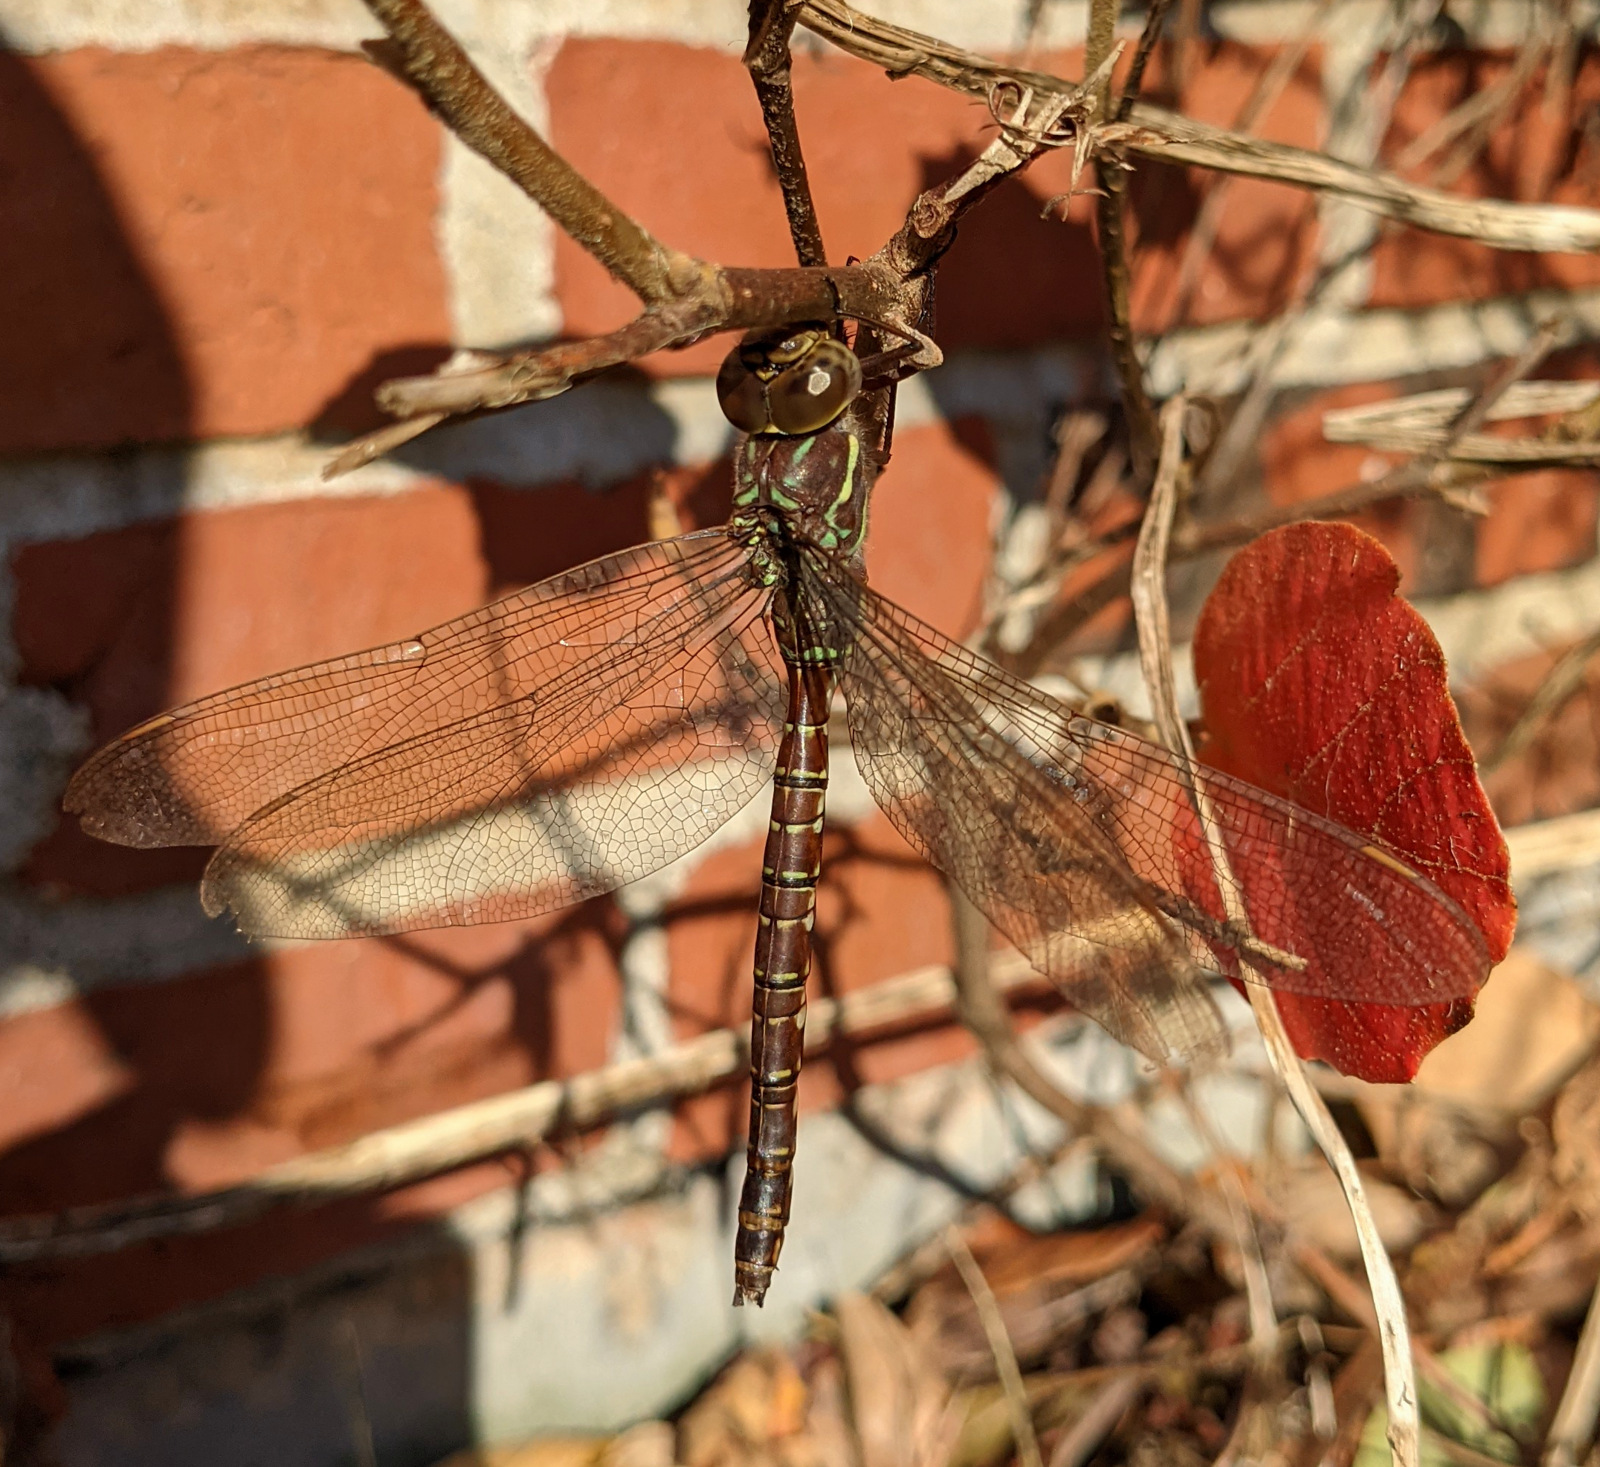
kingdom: Animalia
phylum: Arthropoda
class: Insecta
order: Odonata
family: Aeshnidae
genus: Aeshna
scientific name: Aeshna umbrosa
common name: Shadow darner
